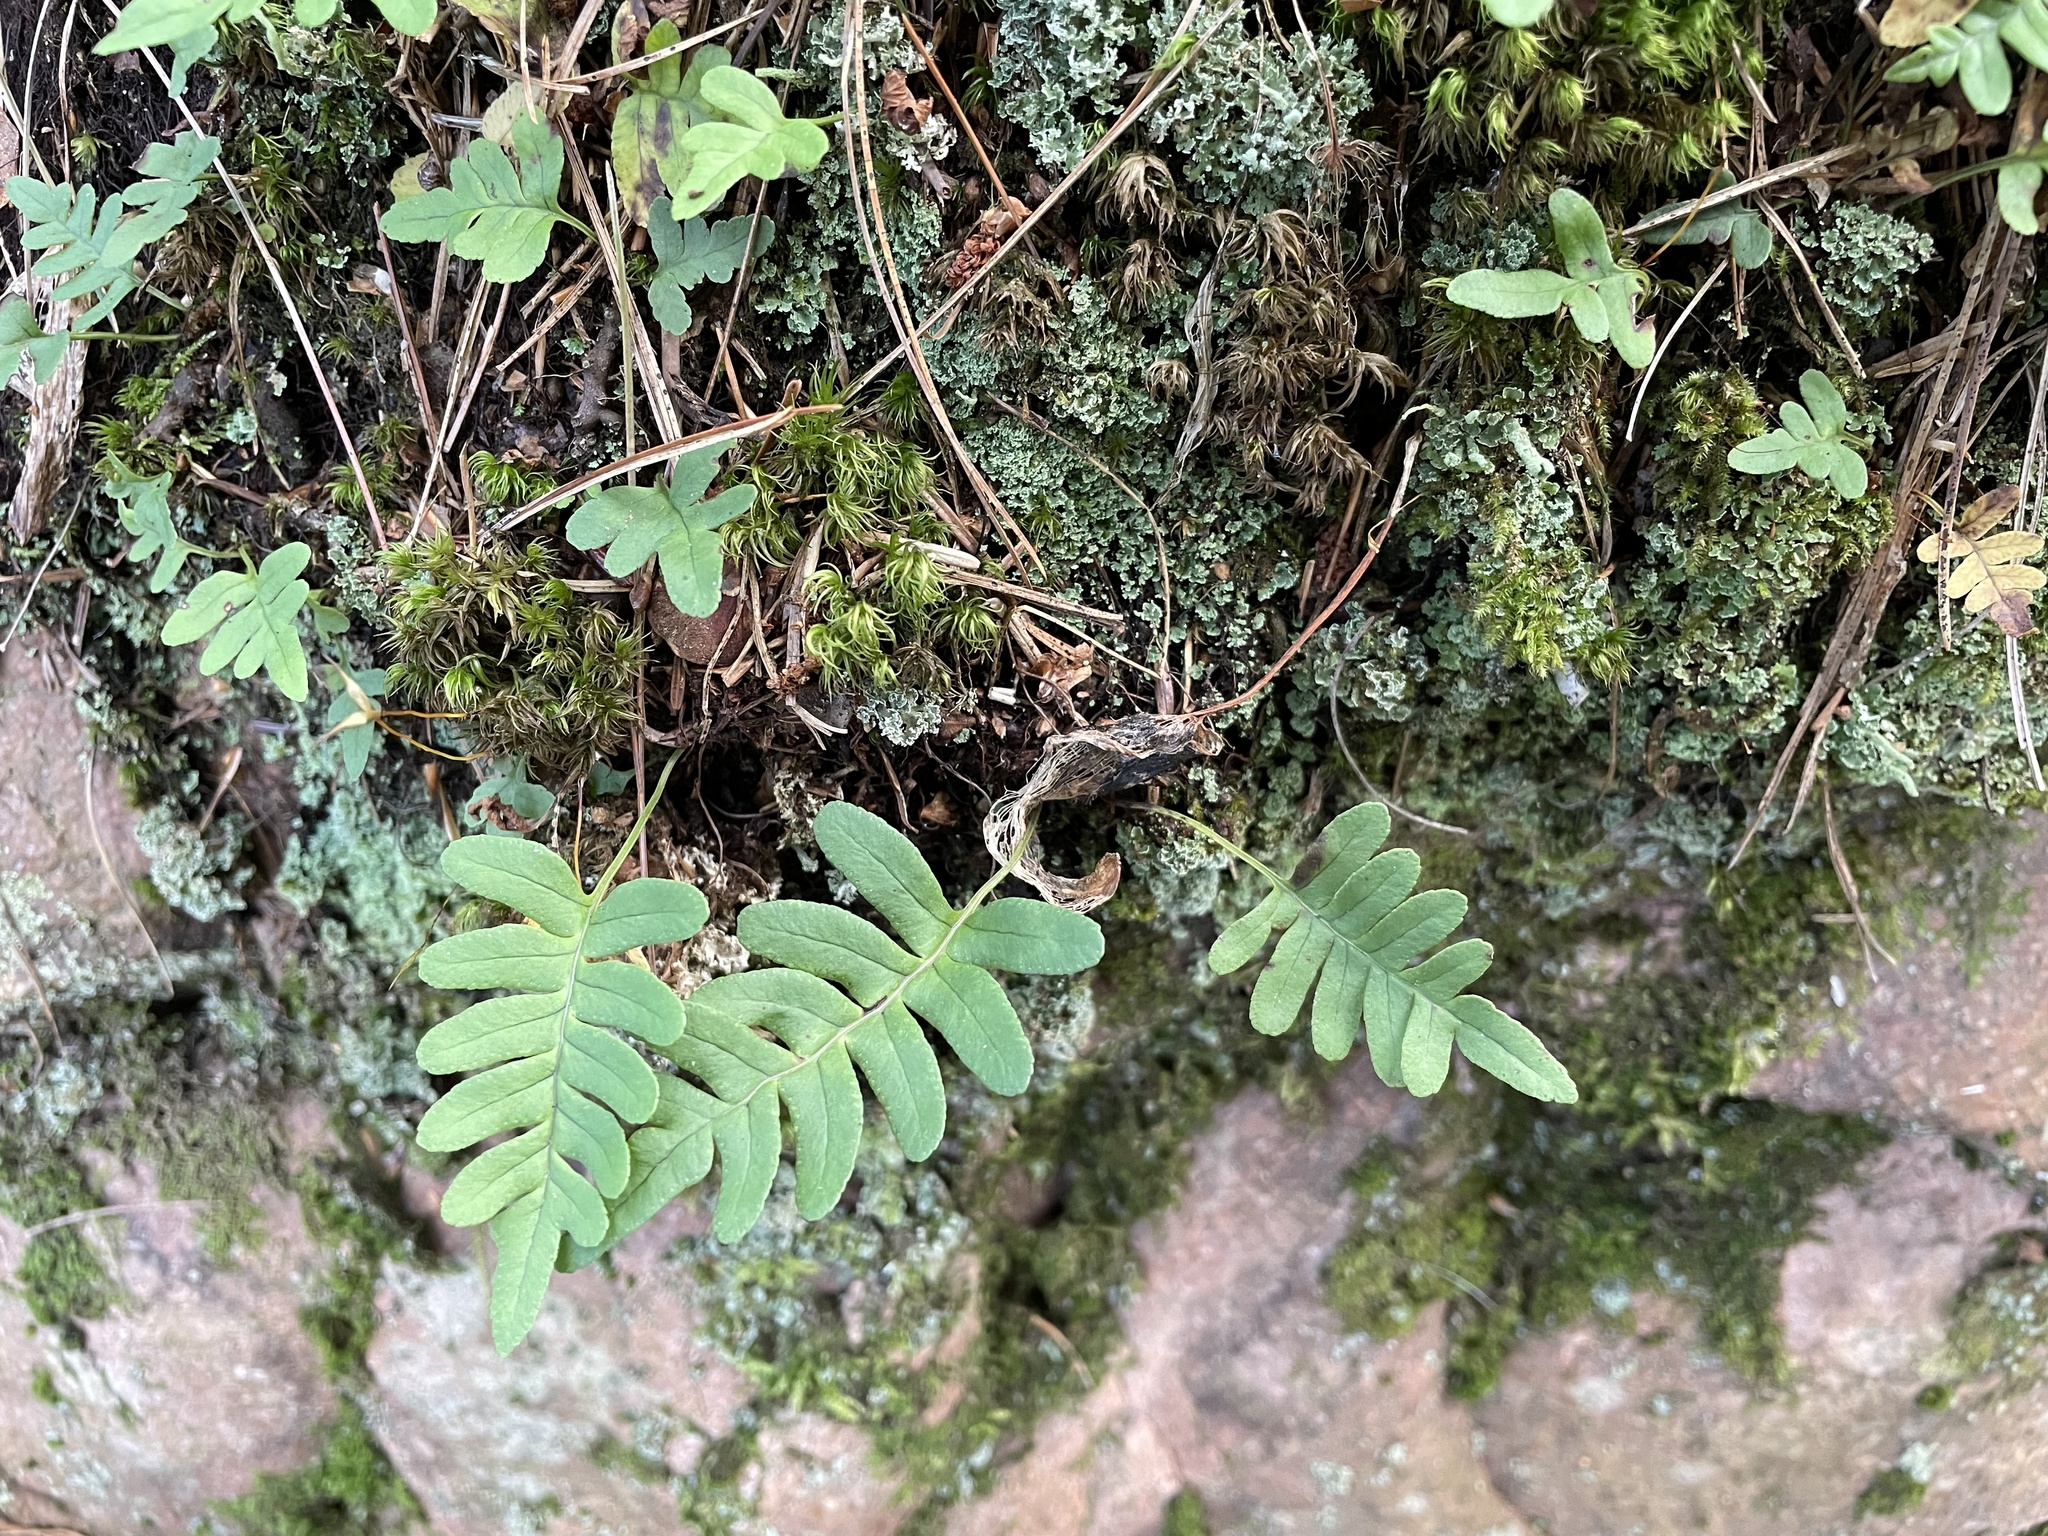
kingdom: Plantae
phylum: Tracheophyta
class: Polypodiopsida
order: Polypodiales
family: Polypodiaceae
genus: Polypodium
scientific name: Polypodium virginianum
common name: American wall fern
